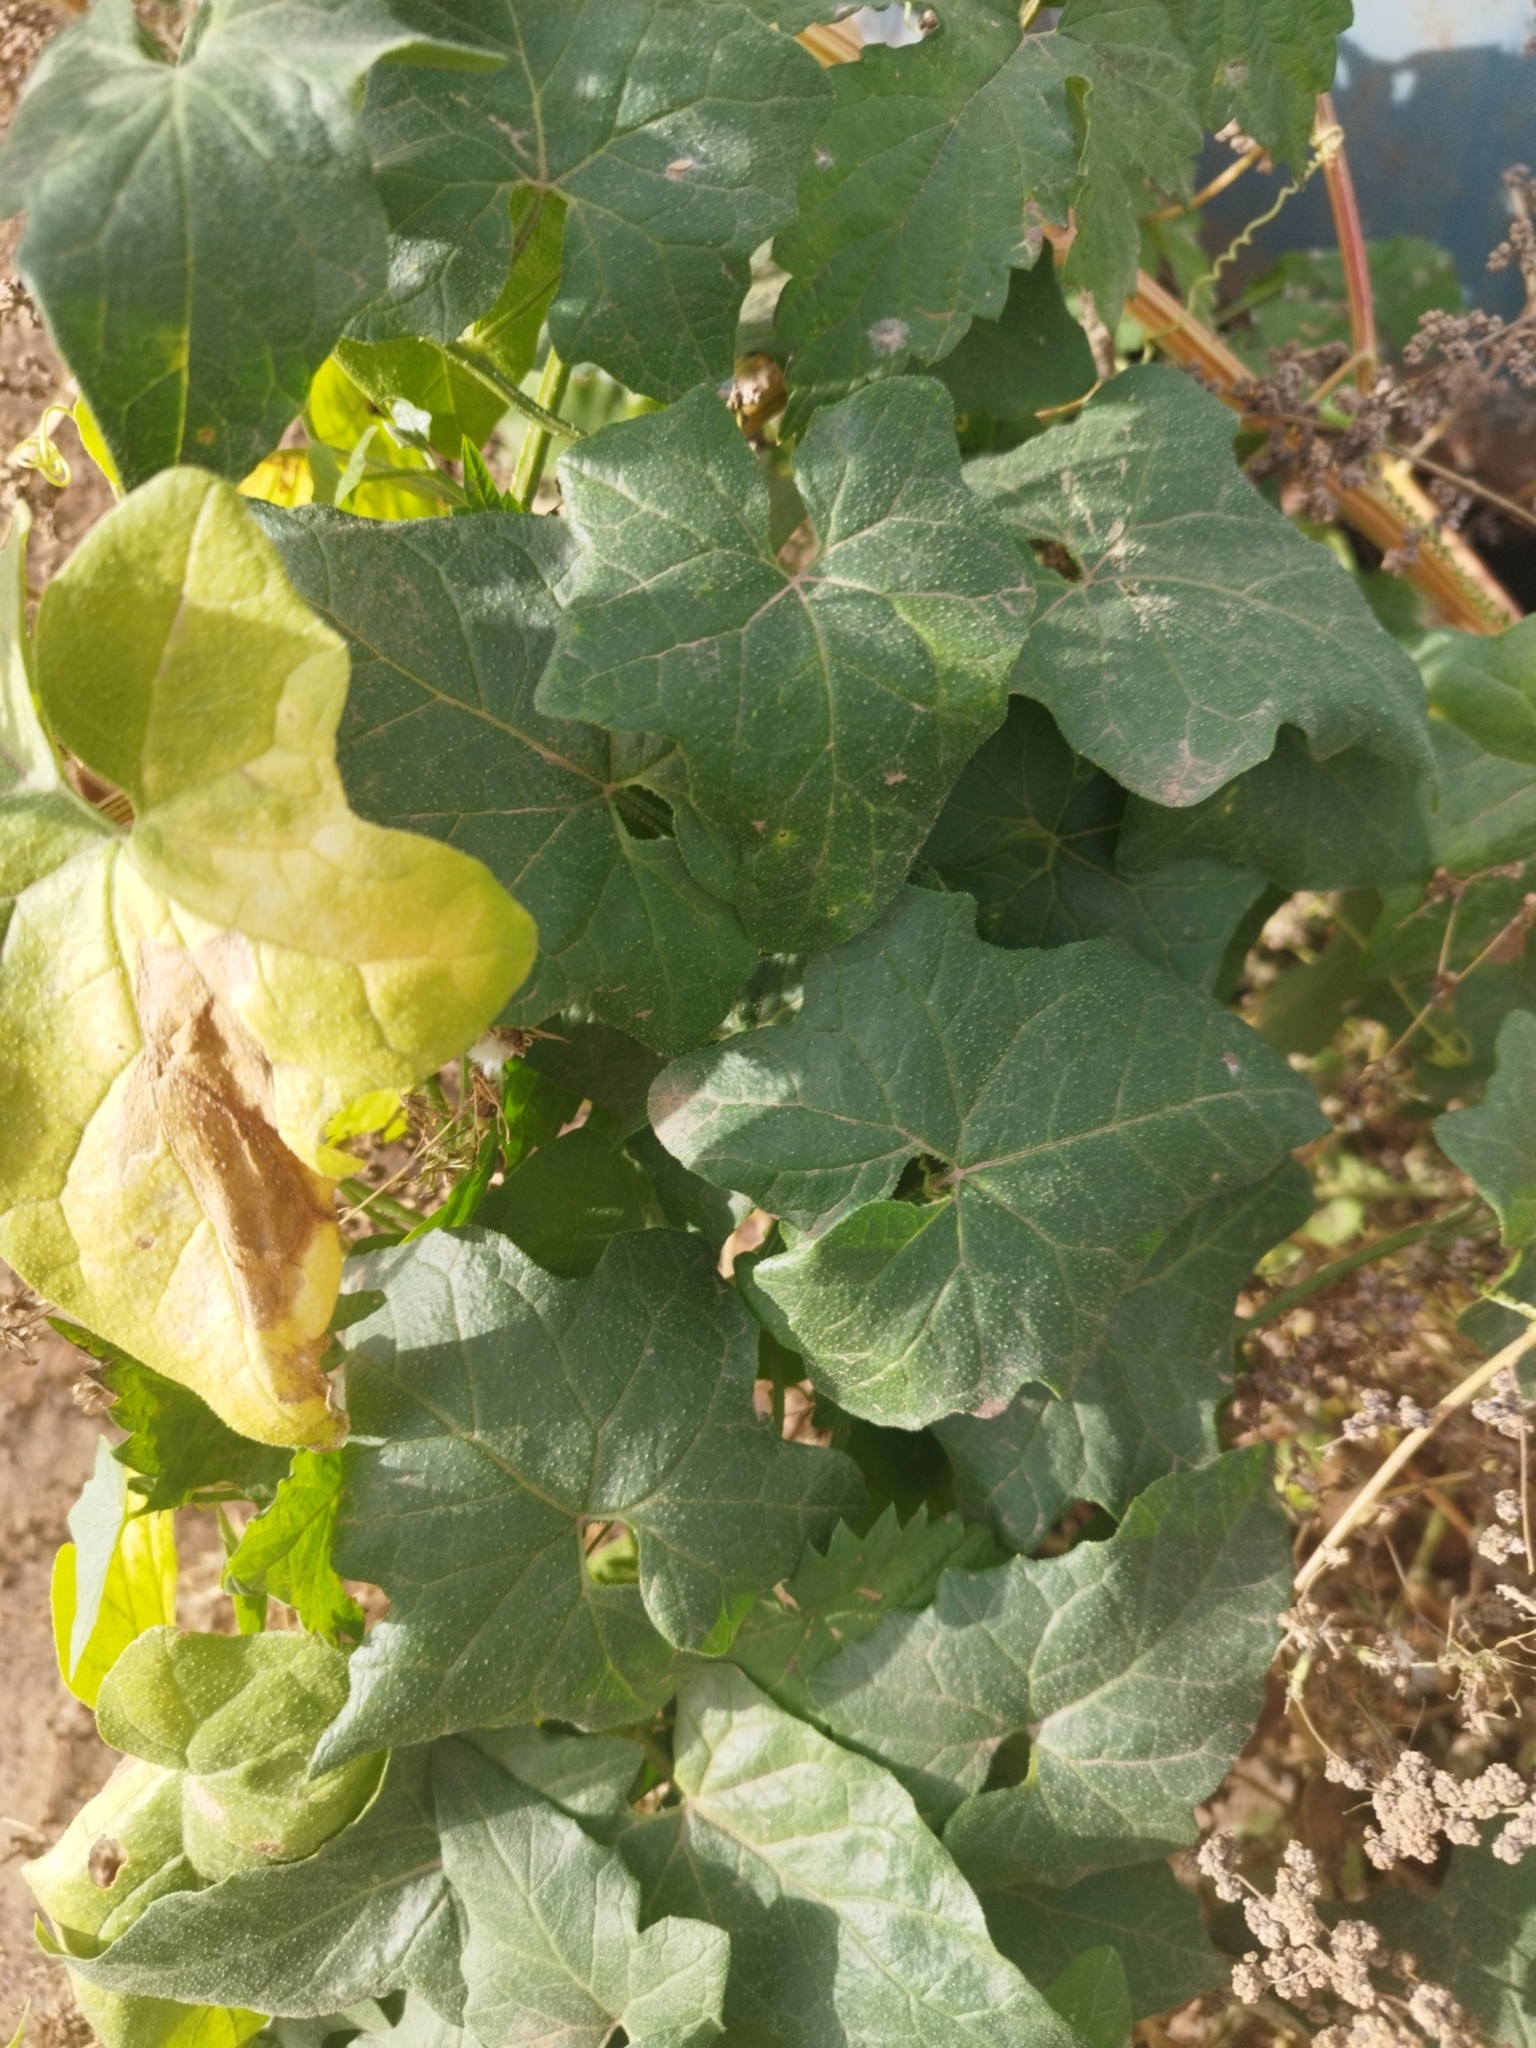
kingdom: Plantae
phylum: Tracheophyta
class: Magnoliopsida
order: Cucurbitales
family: Cucurbitaceae
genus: Bryonia
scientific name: Bryonia alba
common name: White bryony
